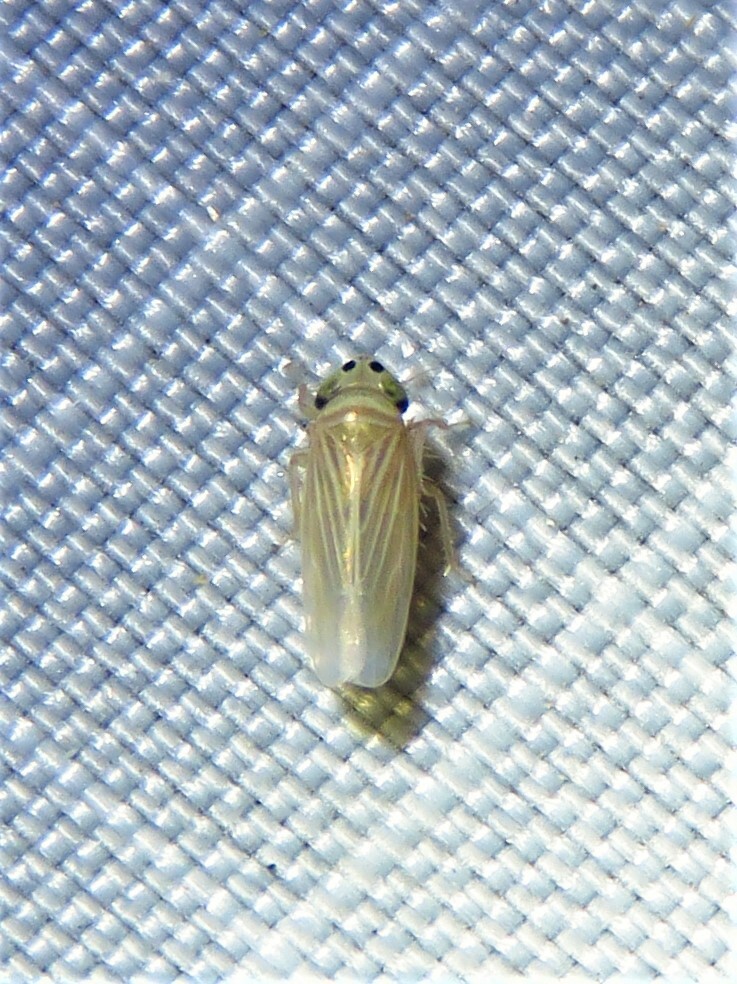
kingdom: Animalia
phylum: Arthropoda
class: Insecta
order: Hemiptera
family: Cicadellidae
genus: Graminella
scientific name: Graminella villicus
